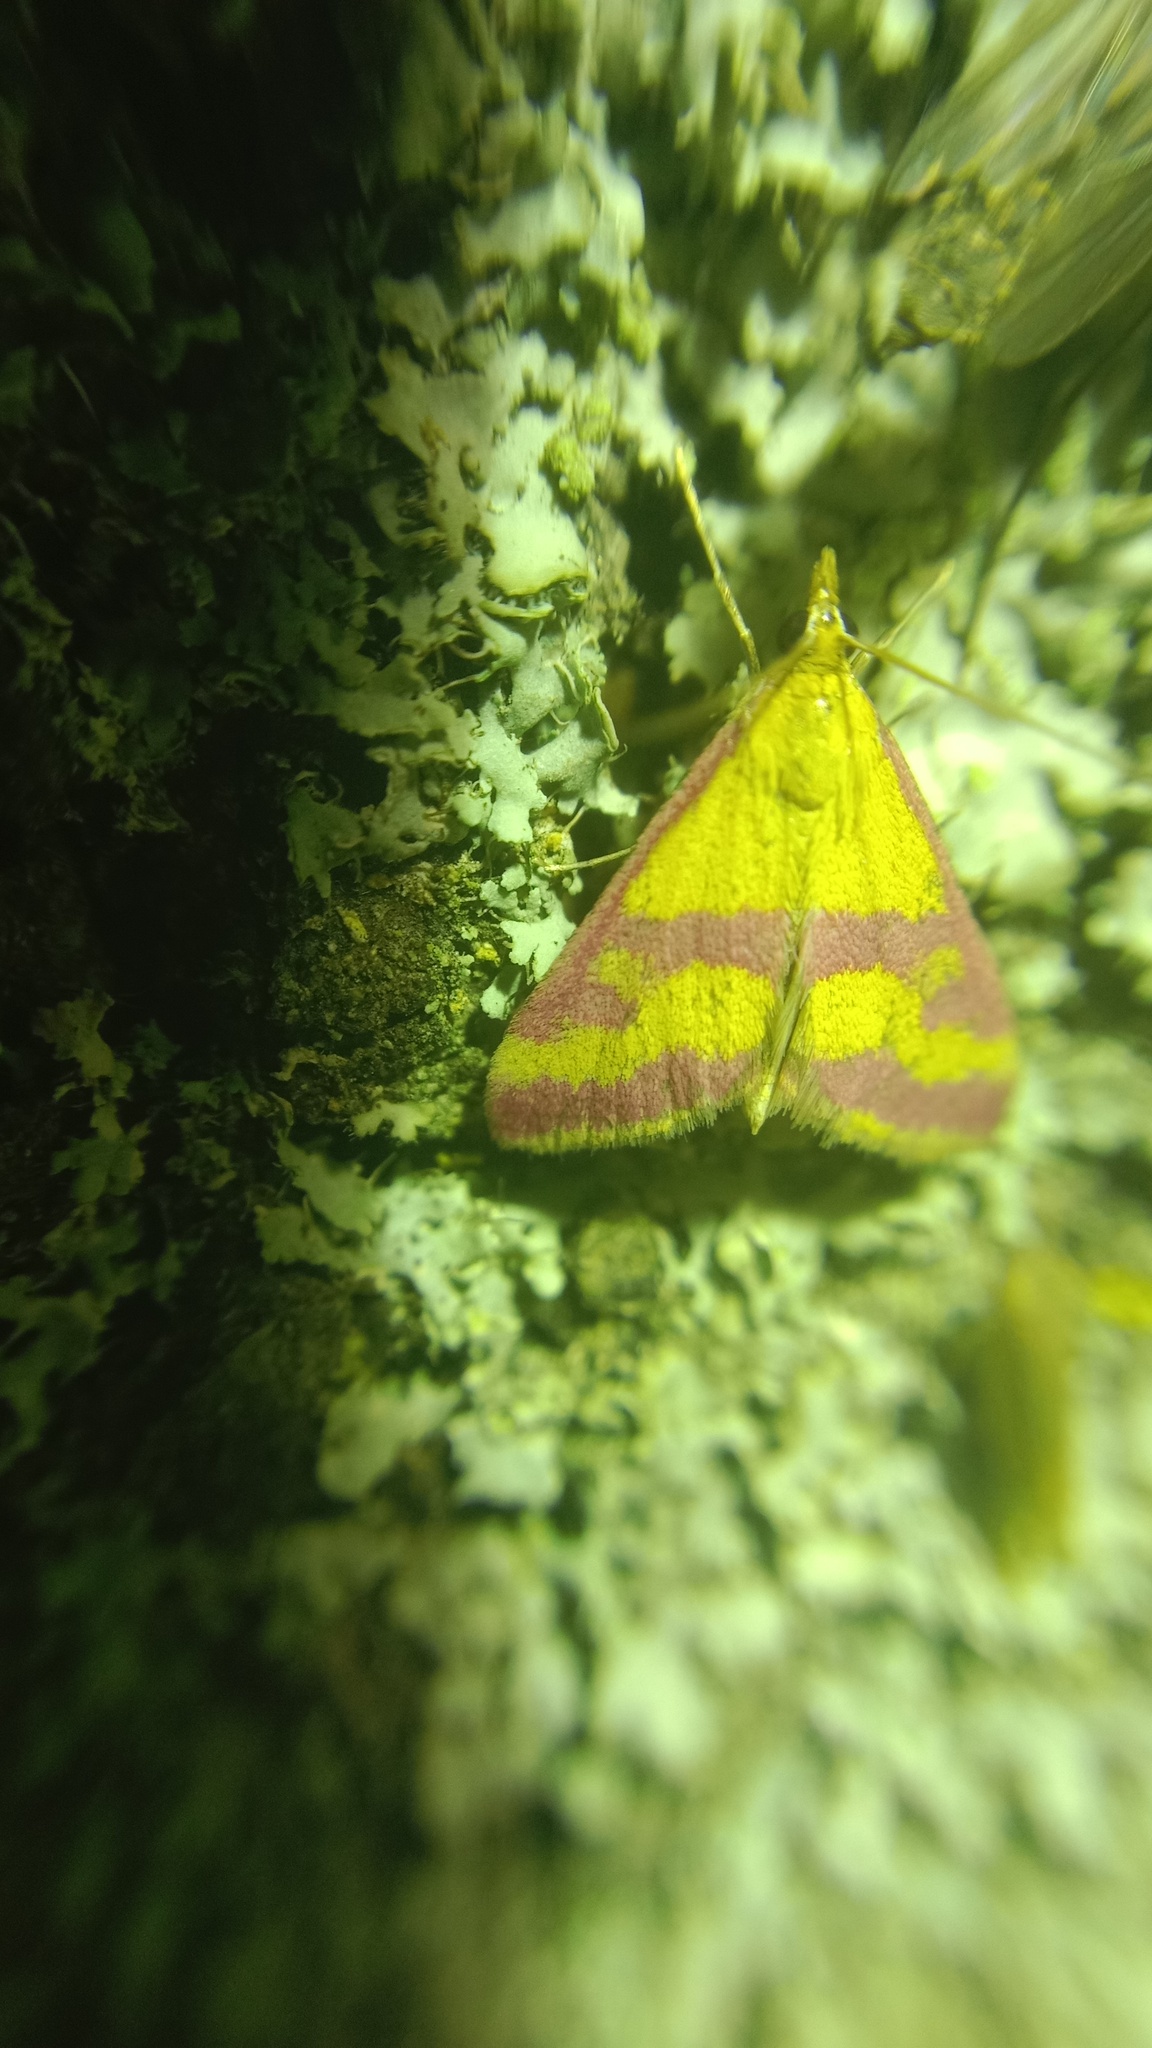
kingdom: Animalia
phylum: Arthropoda
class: Insecta
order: Lepidoptera
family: Crambidae
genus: Pyrausta
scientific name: Pyrausta sanguinalis
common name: Scarce crimson and gold
